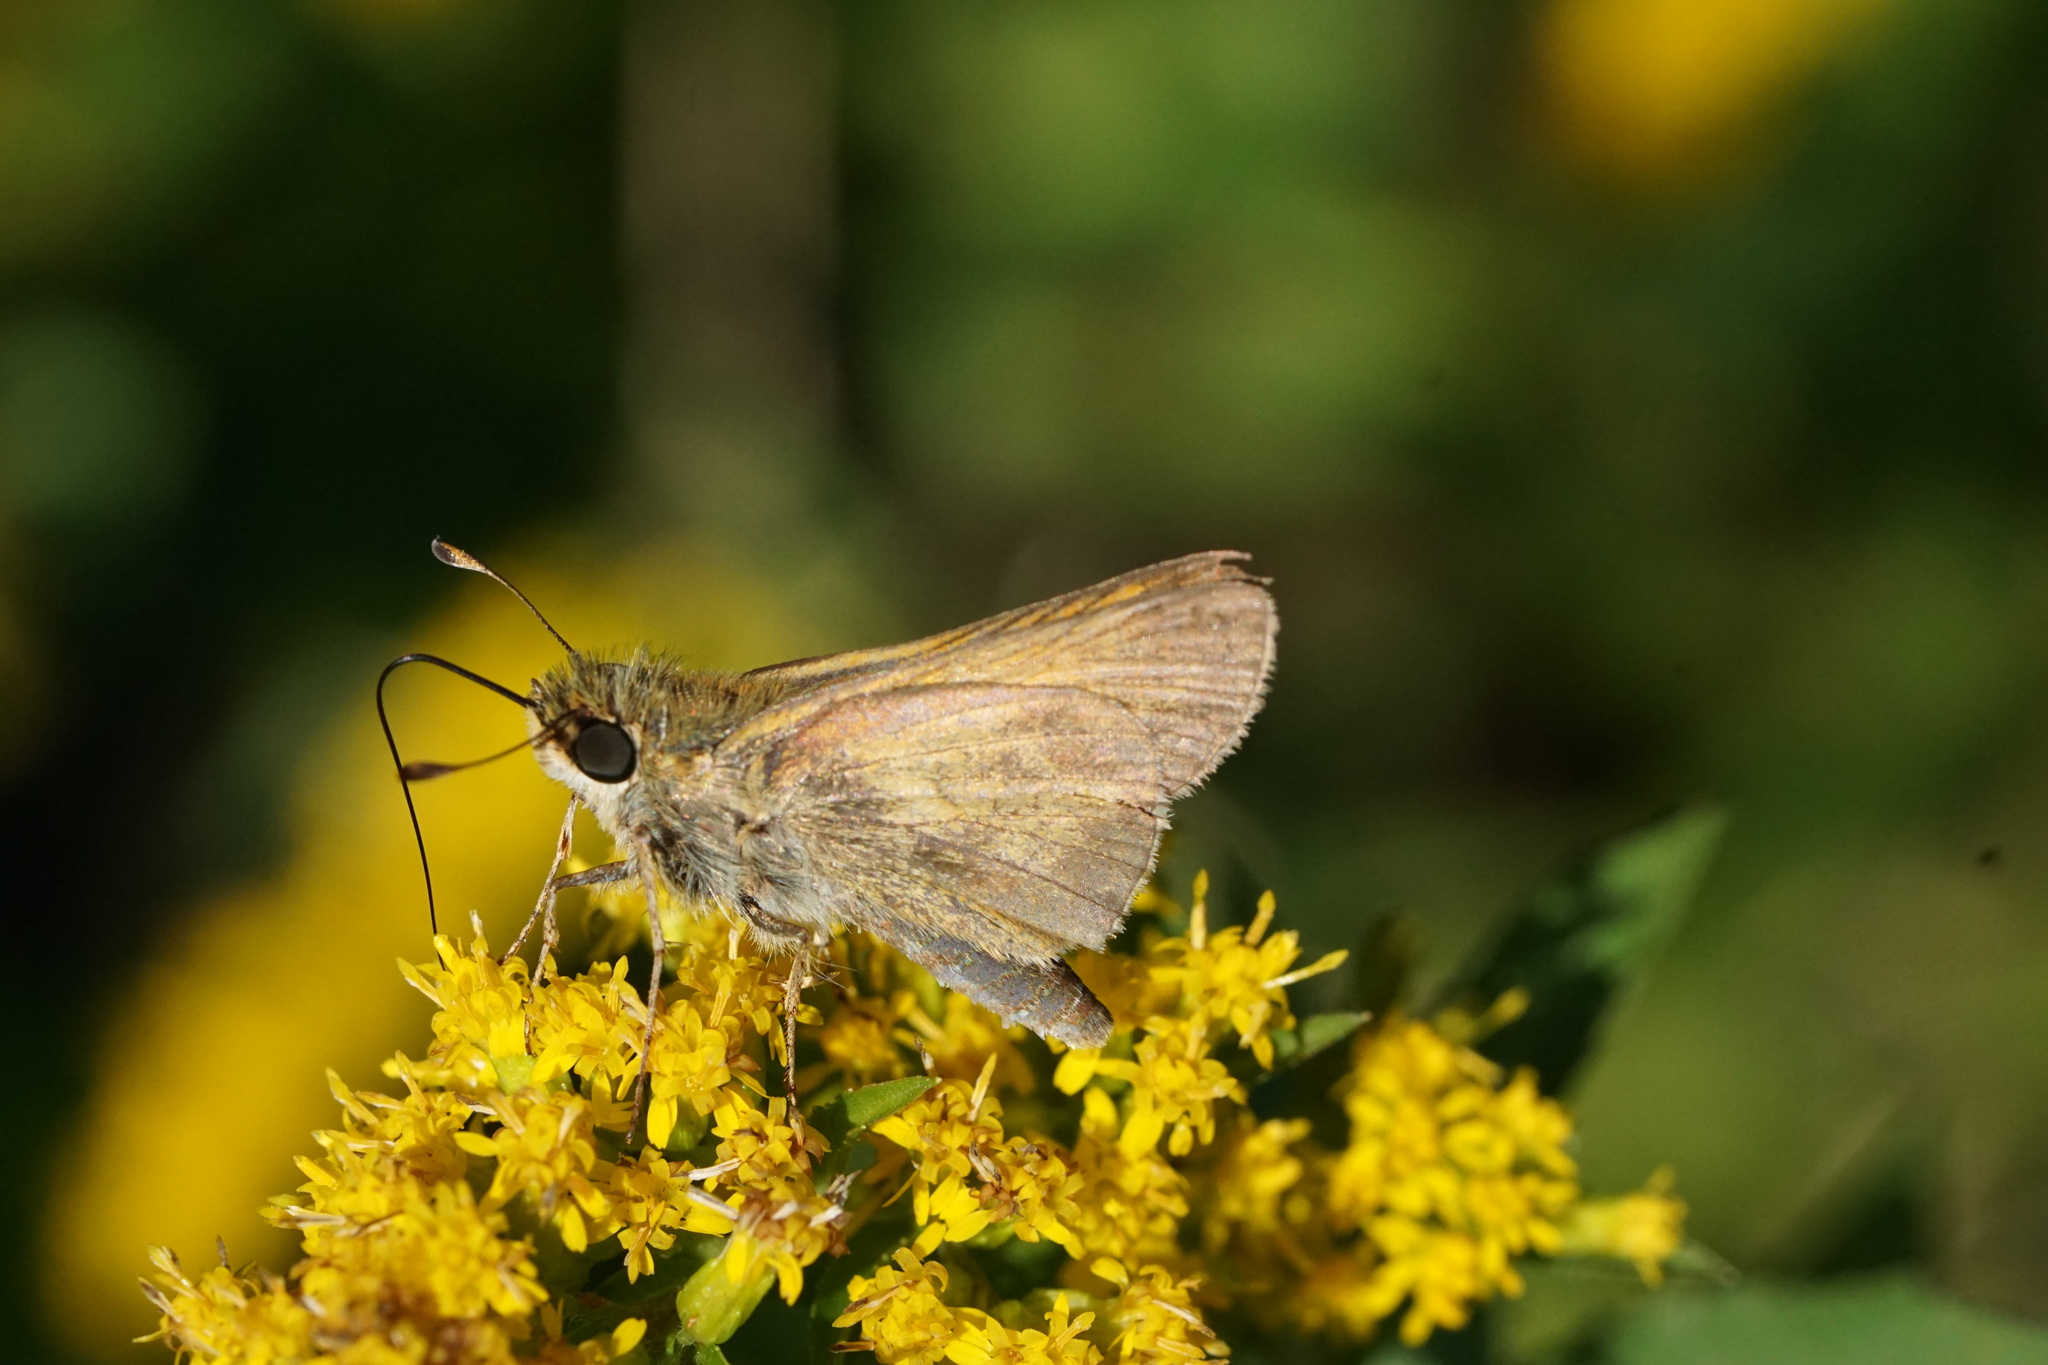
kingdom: Animalia
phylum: Arthropoda
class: Insecta
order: Lepidoptera
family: Hesperiidae
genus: Atalopedes
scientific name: Atalopedes
